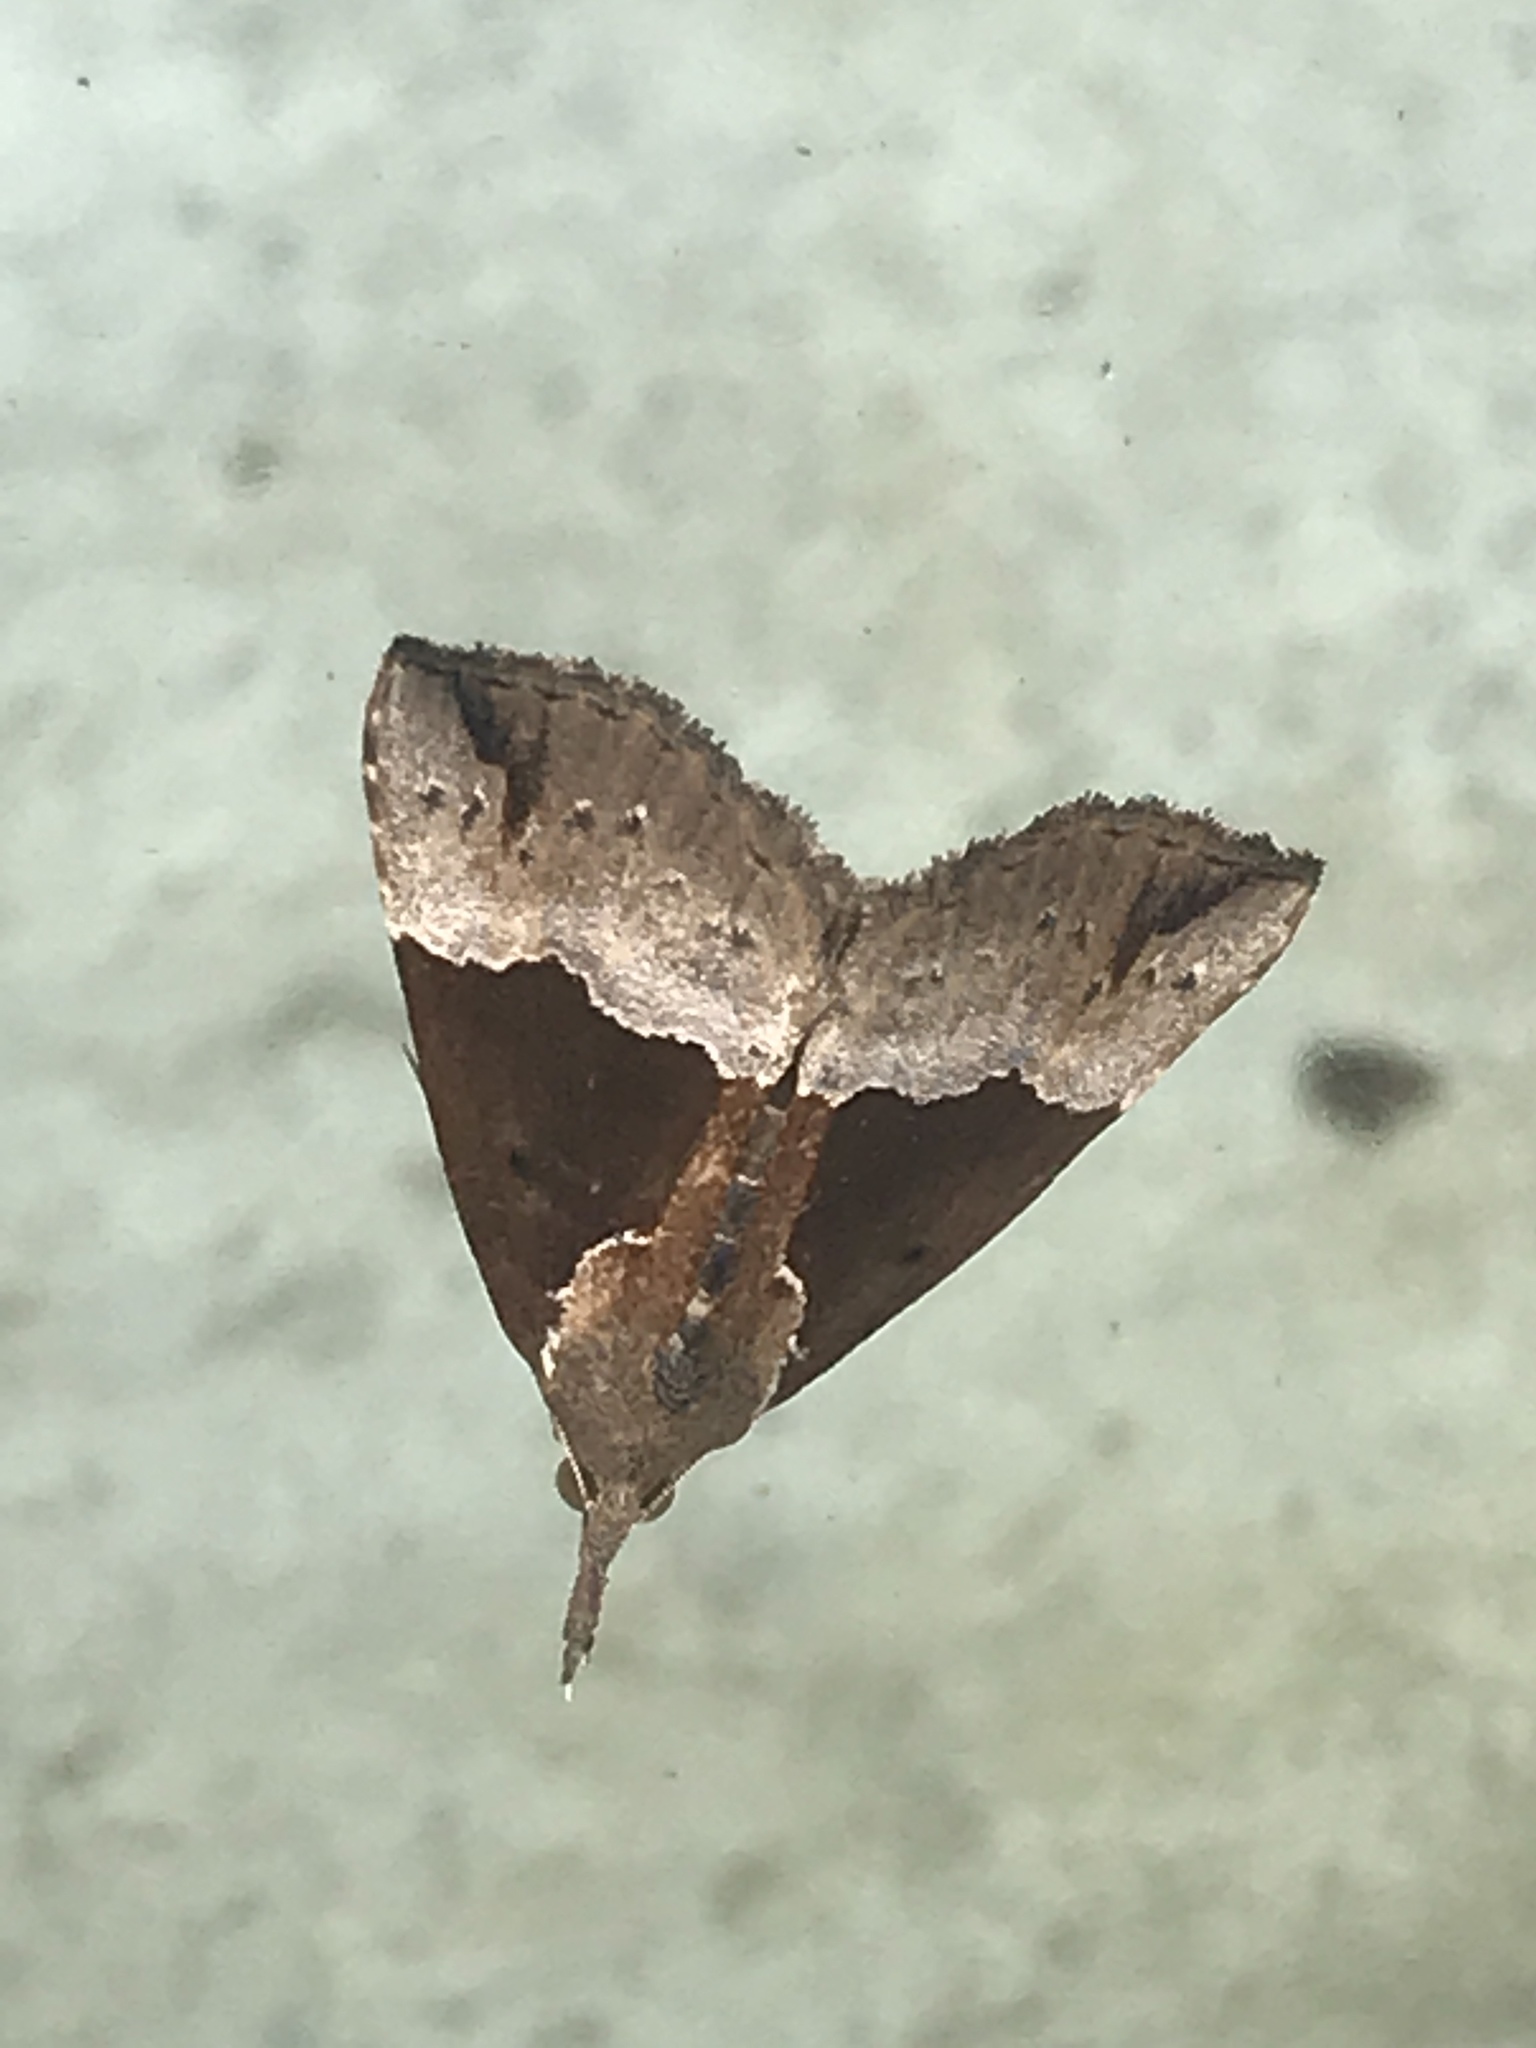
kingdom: Animalia
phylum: Arthropoda
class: Insecta
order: Lepidoptera
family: Erebidae
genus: Hypena
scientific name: Hypena bijugalis
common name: Dimorphic bomolocha moth
